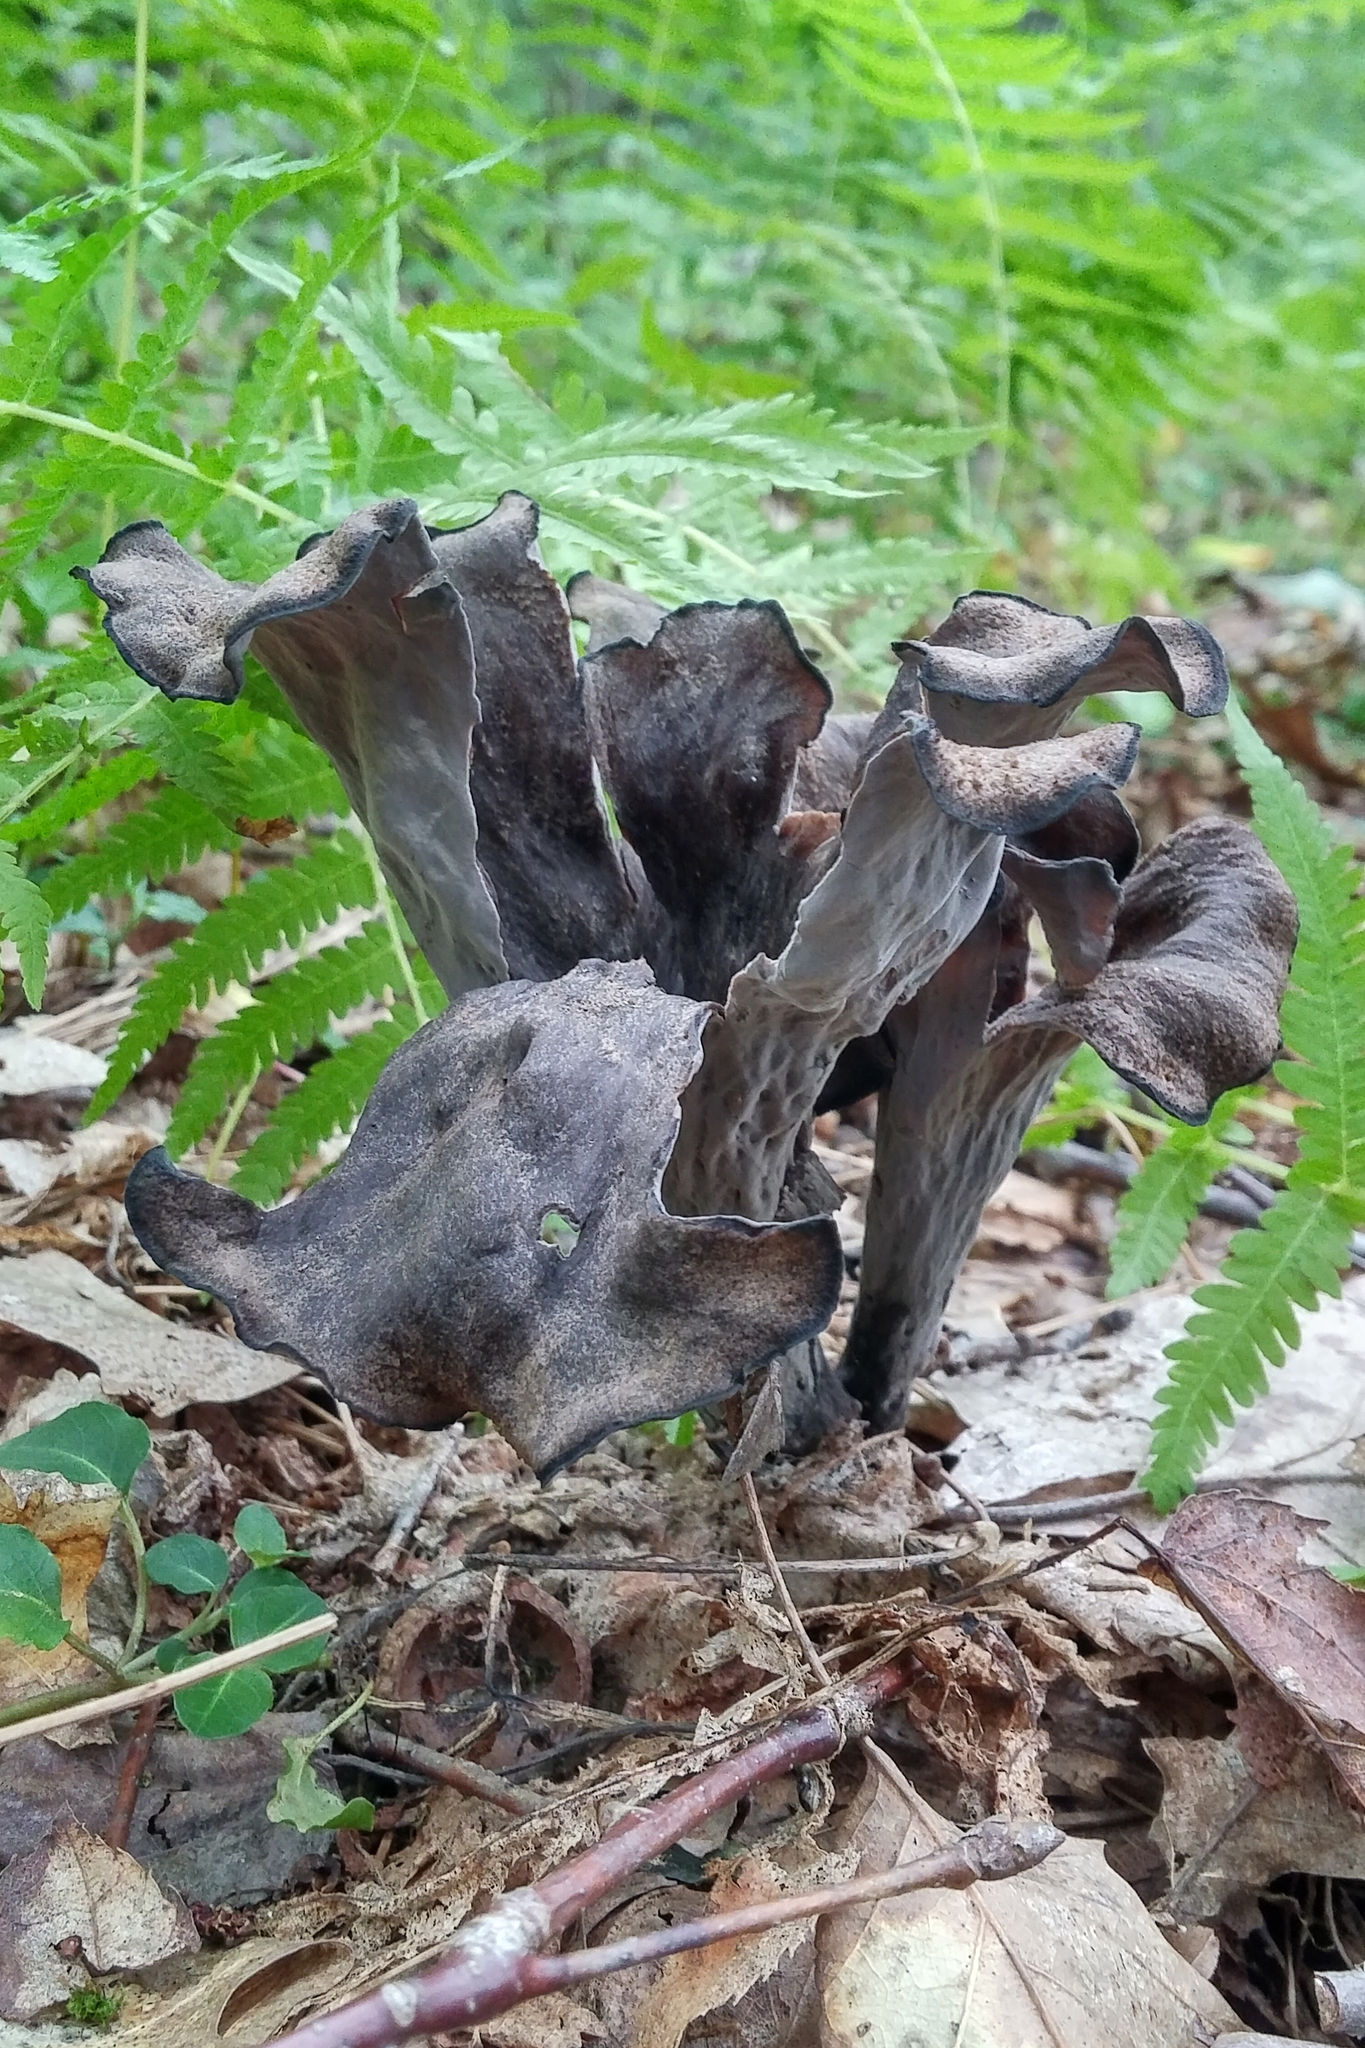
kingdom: Fungi
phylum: Basidiomycota
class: Agaricomycetes
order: Cantharellales
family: Hydnaceae
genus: Craterellus
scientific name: Craterellus cornucopioides
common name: Horn of plenty
